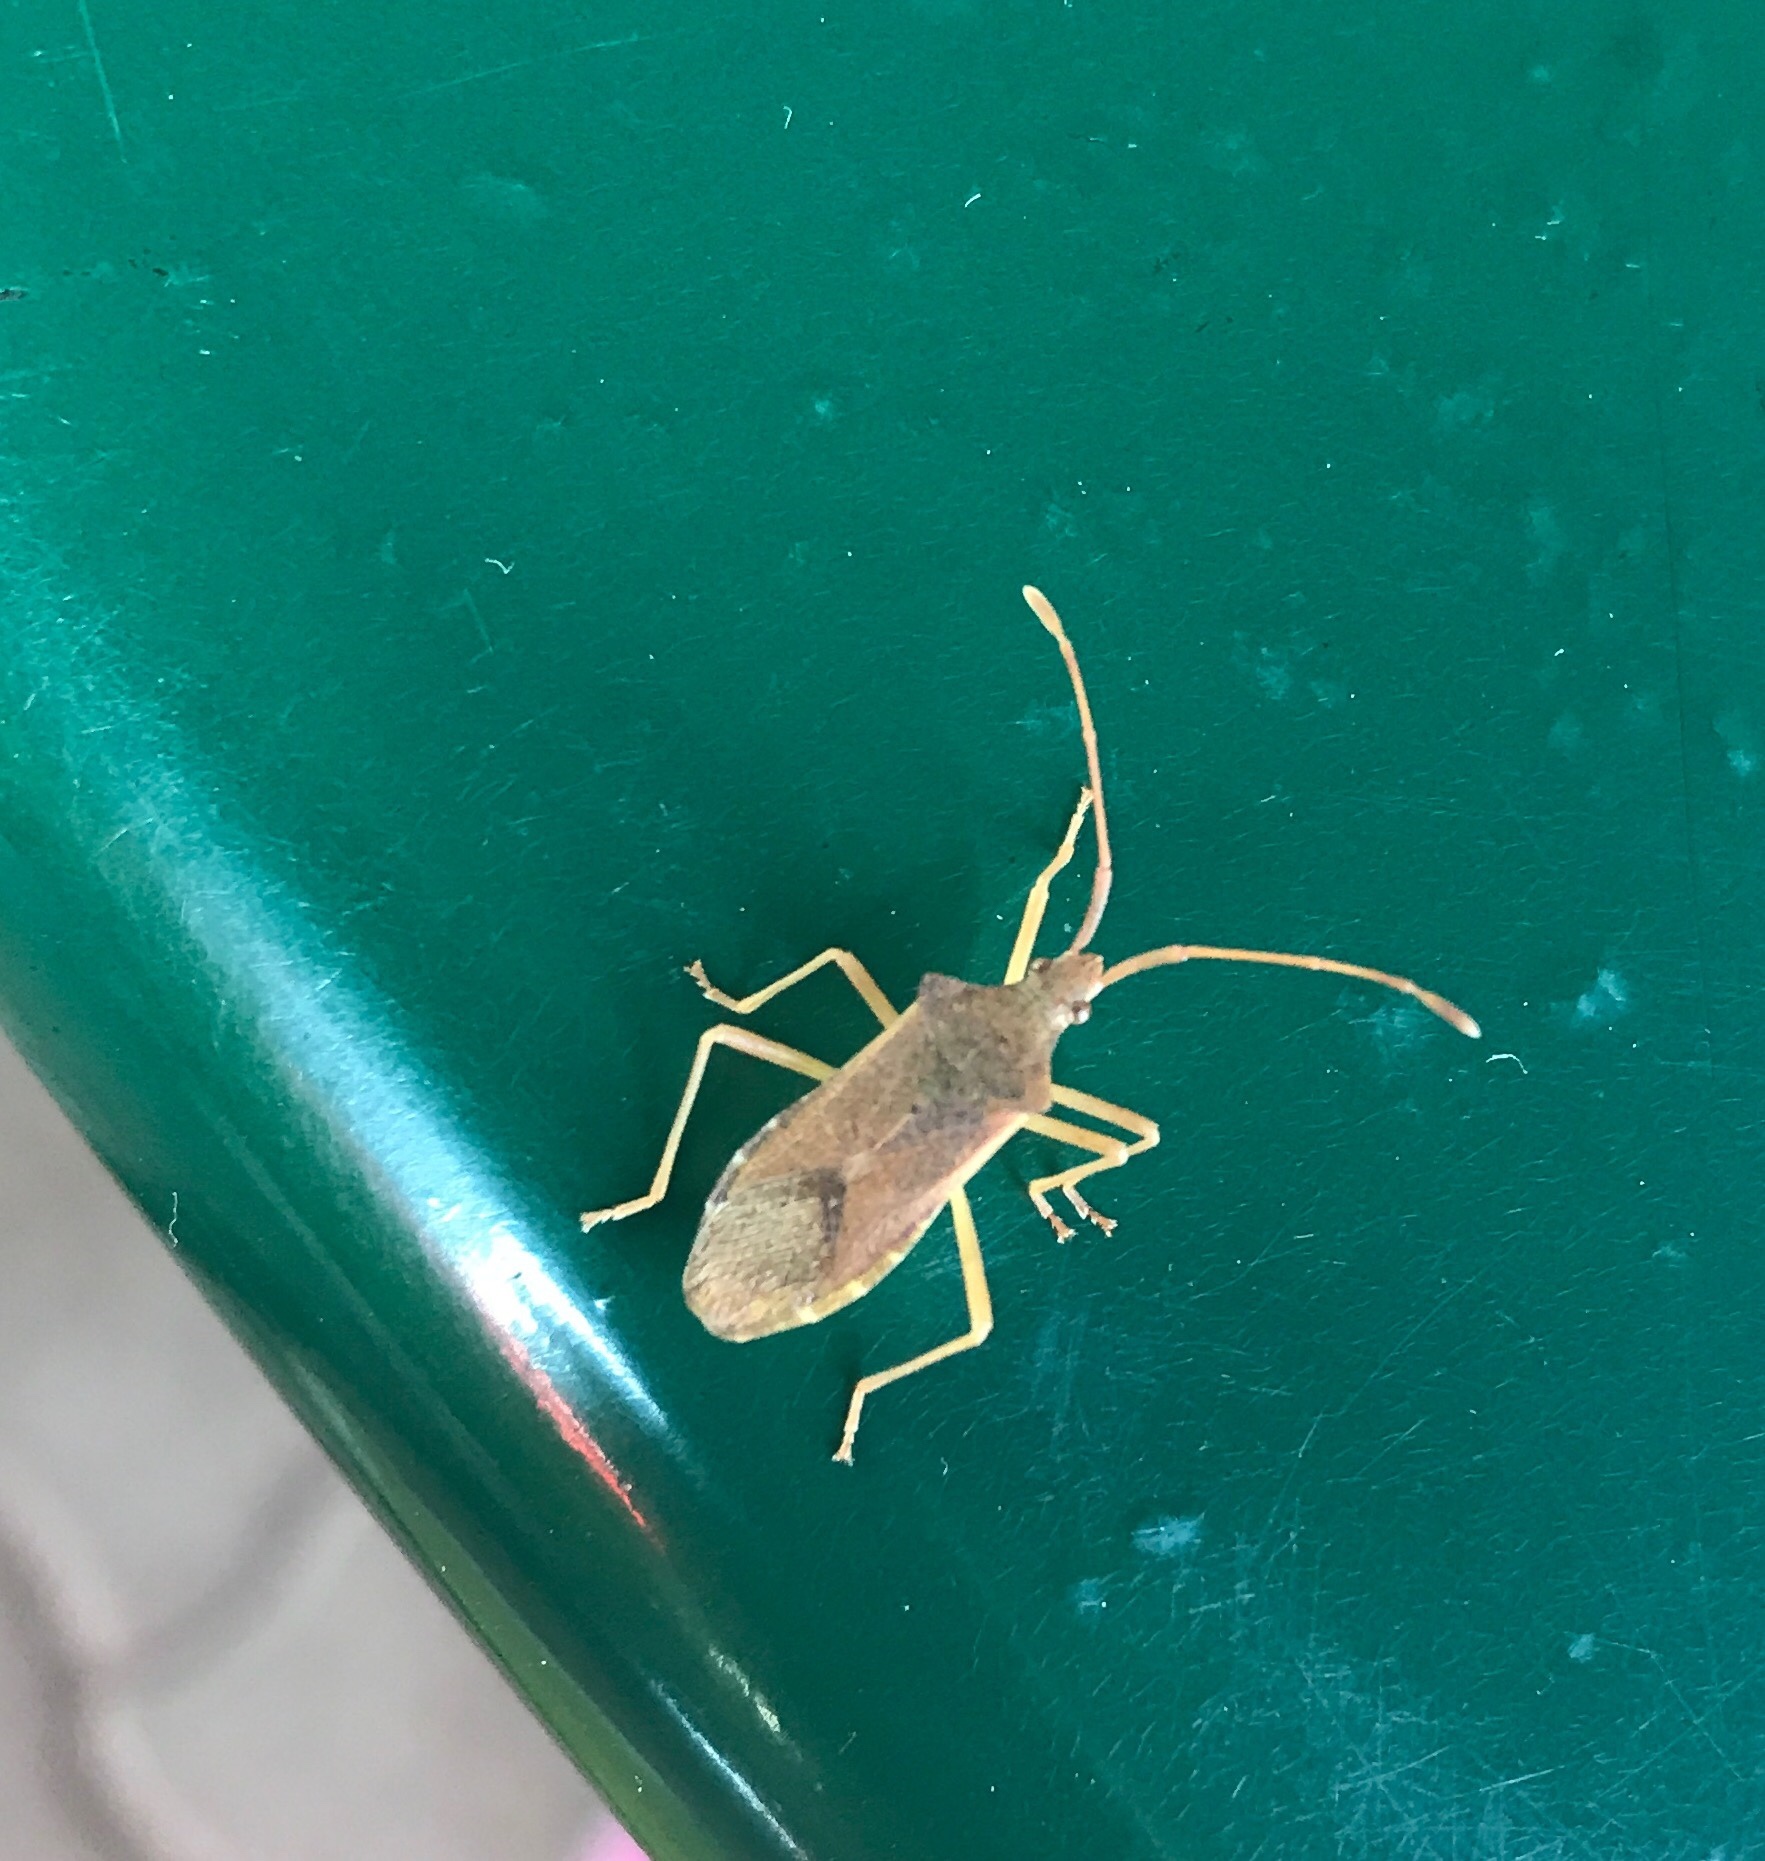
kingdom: Animalia
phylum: Arthropoda
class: Insecta
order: Hemiptera
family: Coreidae
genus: Gonocerus
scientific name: Gonocerus acuteangulatus
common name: Box bug
